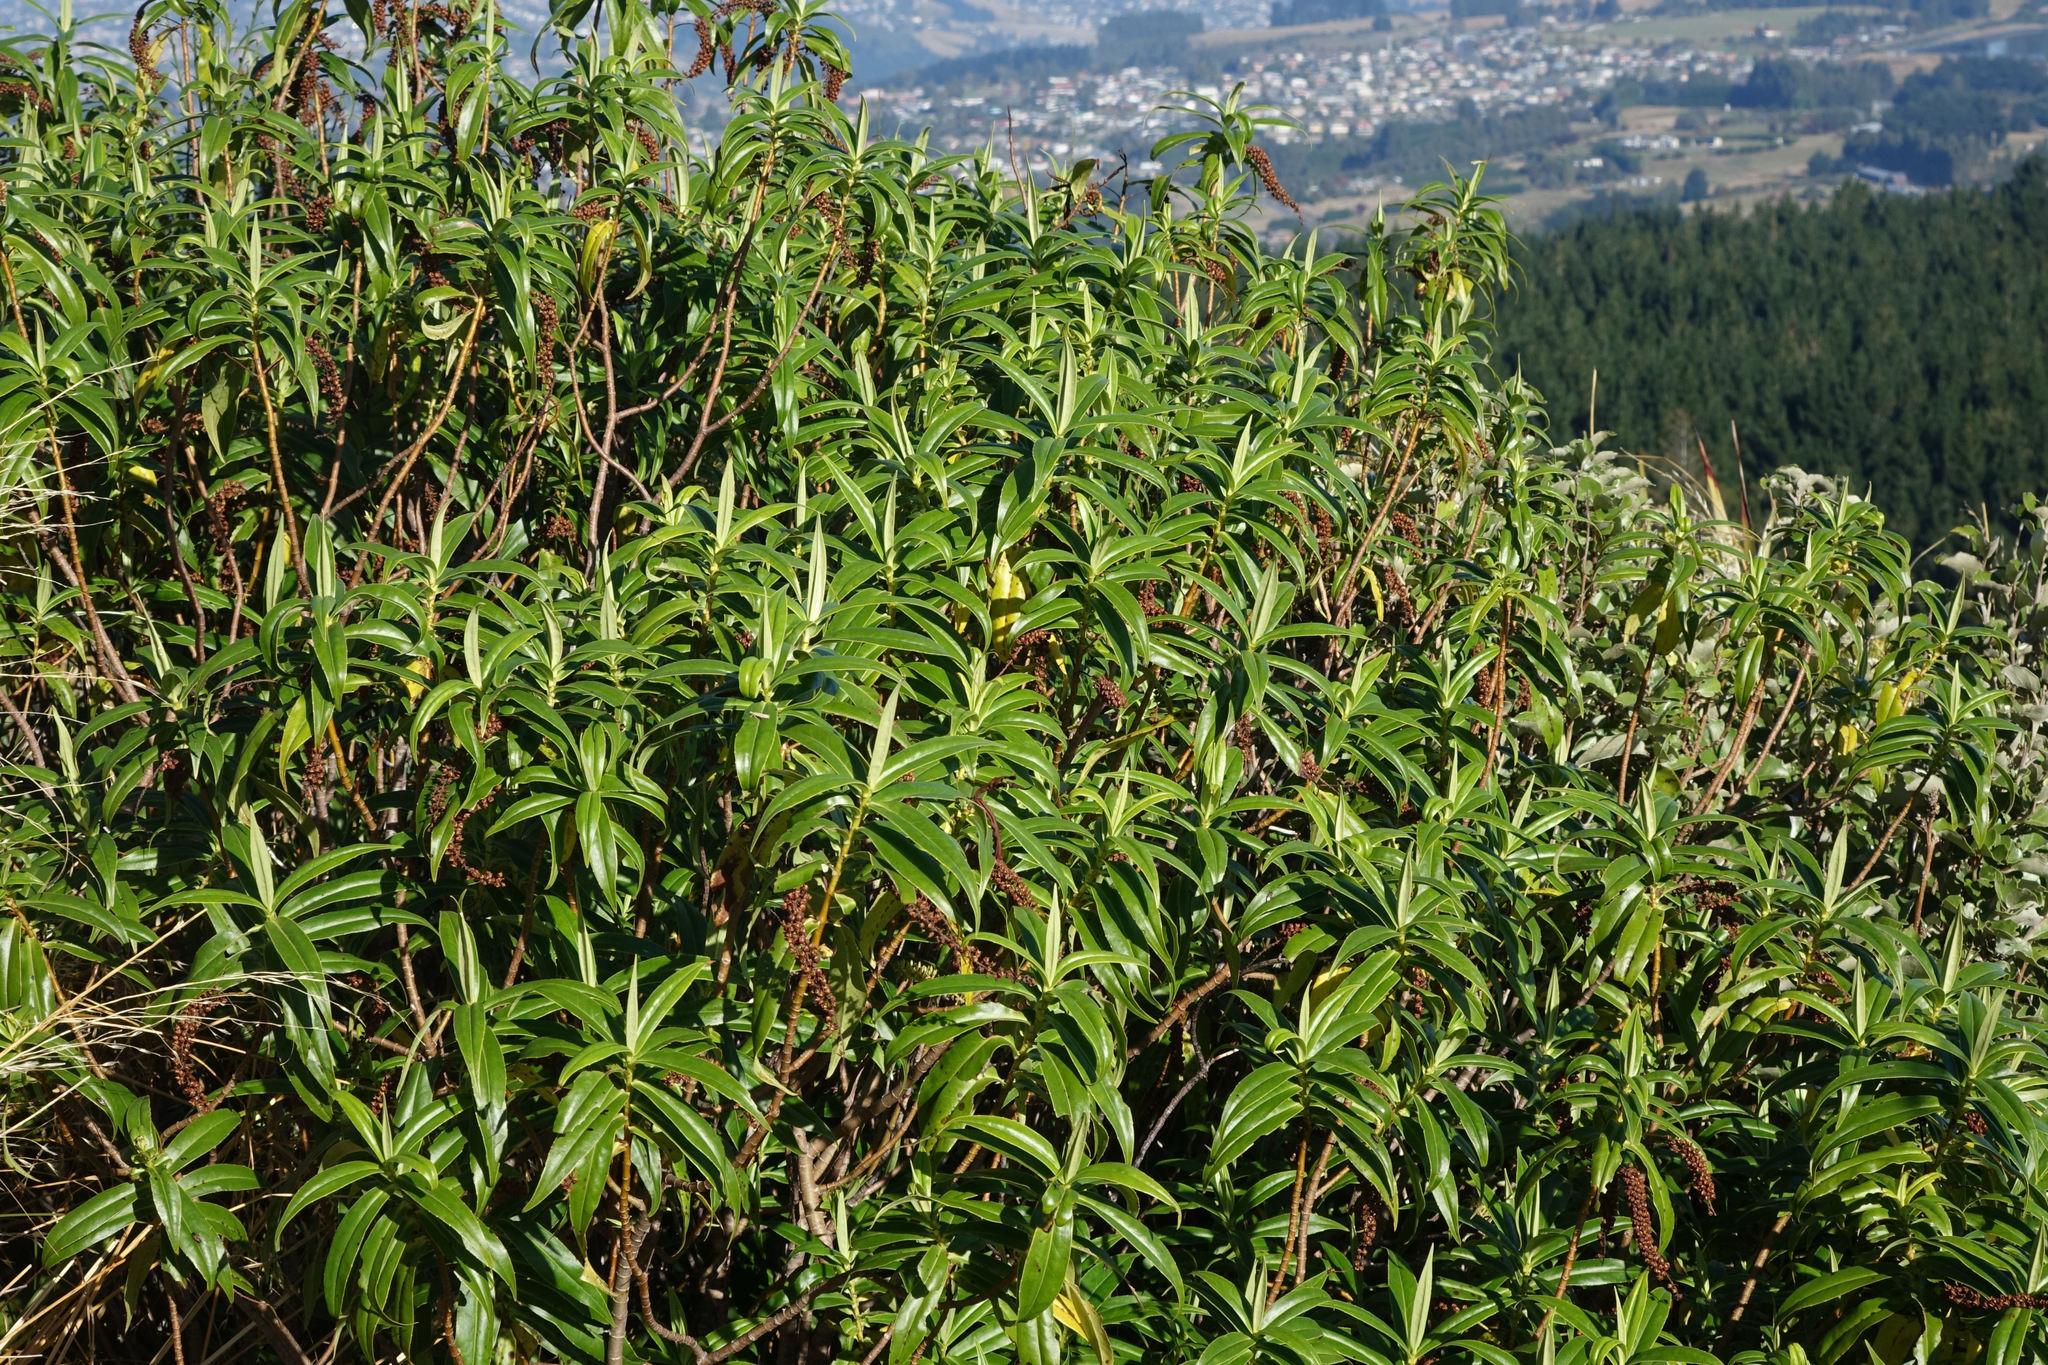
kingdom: Plantae
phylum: Tracheophyta
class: Magnoliopsida
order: Lamiales
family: Plantaginaceae
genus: Veronica
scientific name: Veronica salicifolia
